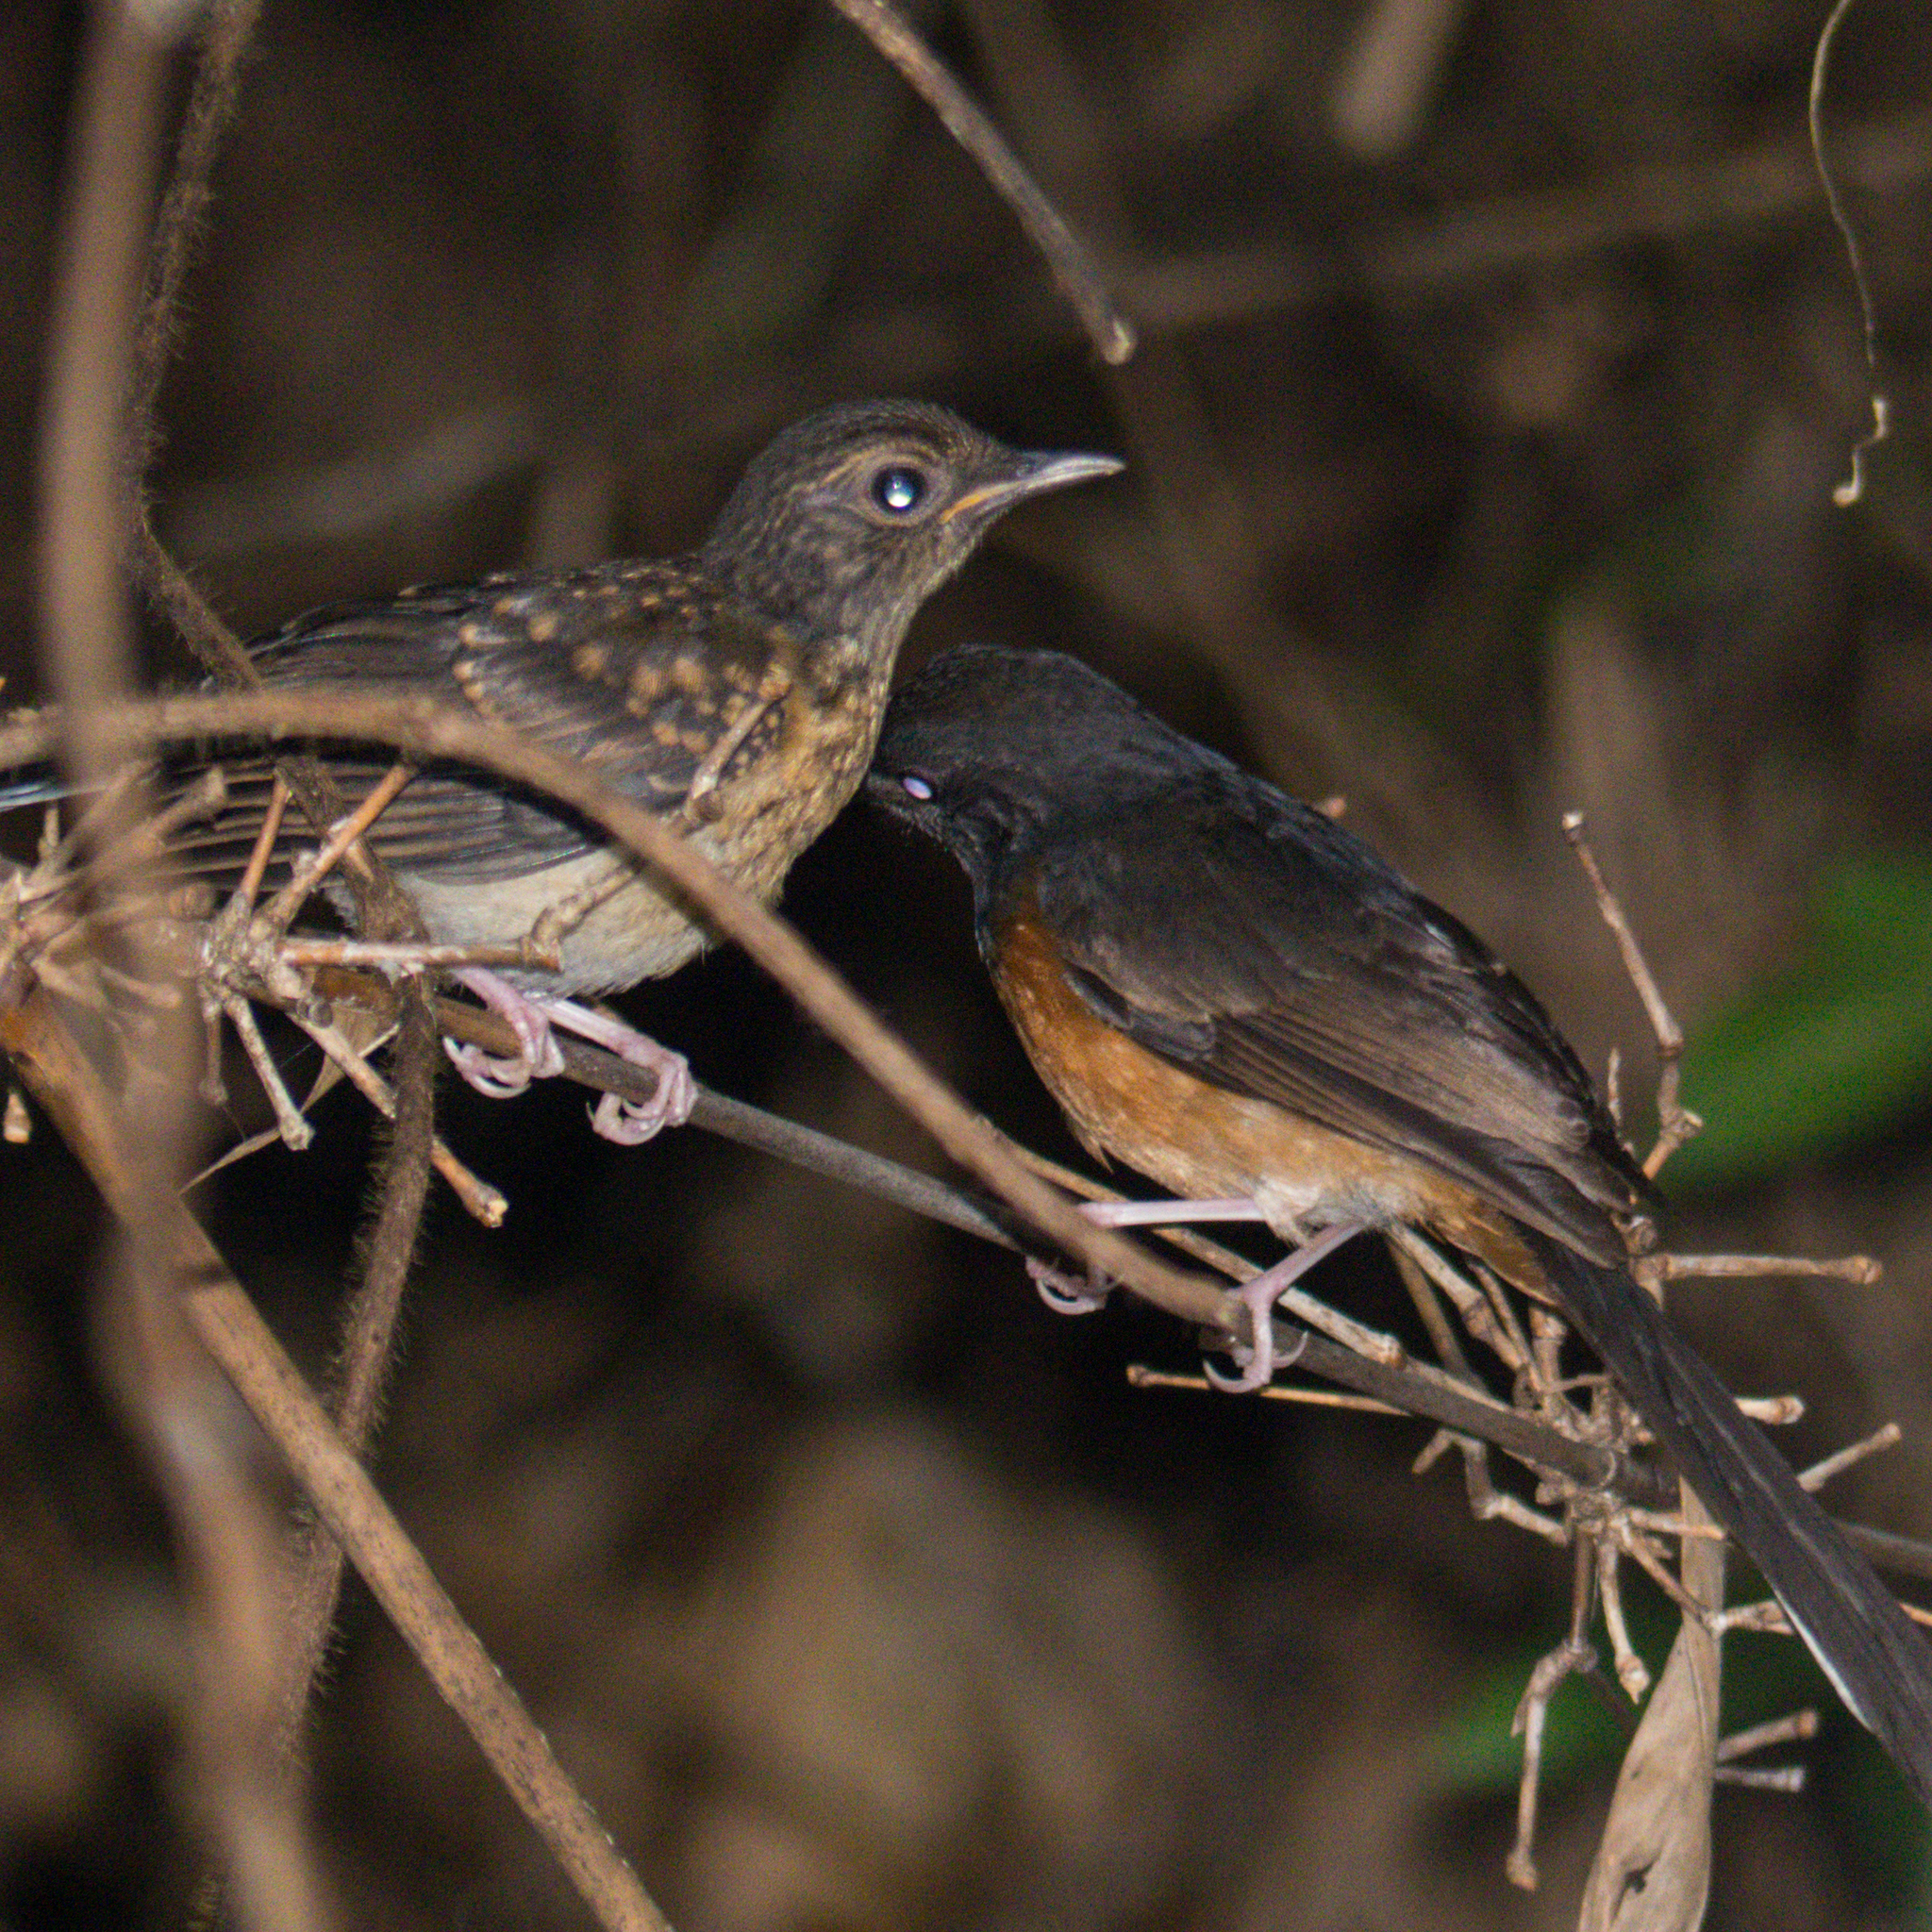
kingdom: Animalia
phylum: Chordata
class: Aves
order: Passeriformes
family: Muscicapidae
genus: Copsychus
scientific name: Copsychus malabaricus
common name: White-rumped shama
